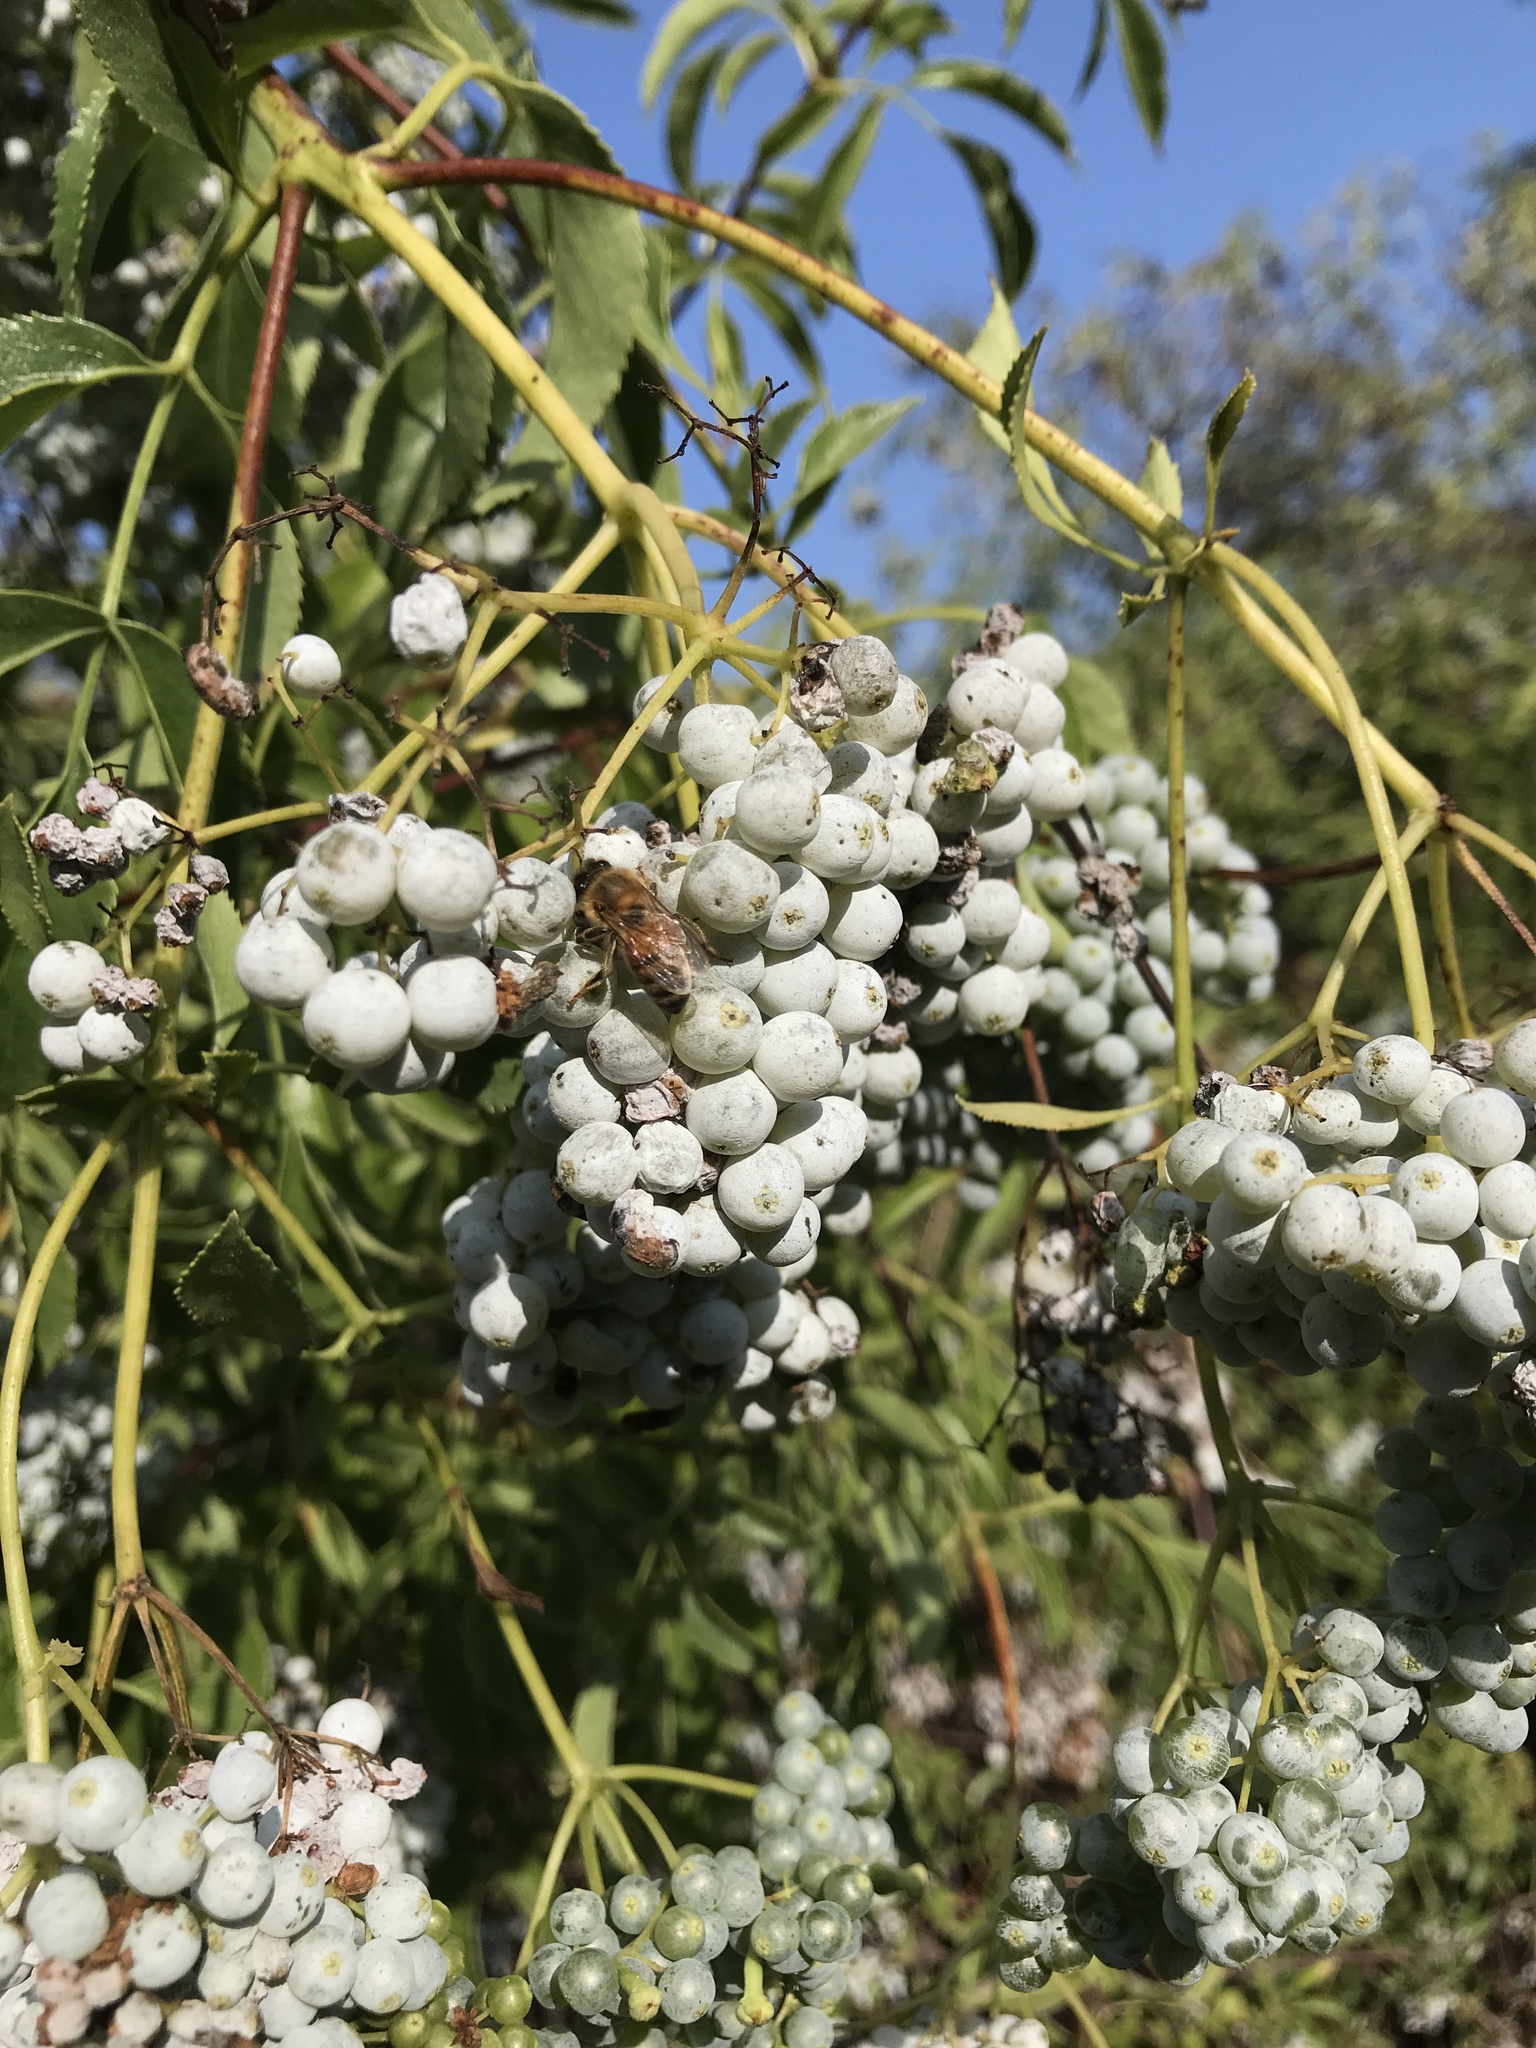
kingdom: Plantae
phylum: Tracheophyta
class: Magnoliopsida
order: Dipsacales
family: Viburnaceae
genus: Sambucus
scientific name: Sambucus cerulea
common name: Blue elder
